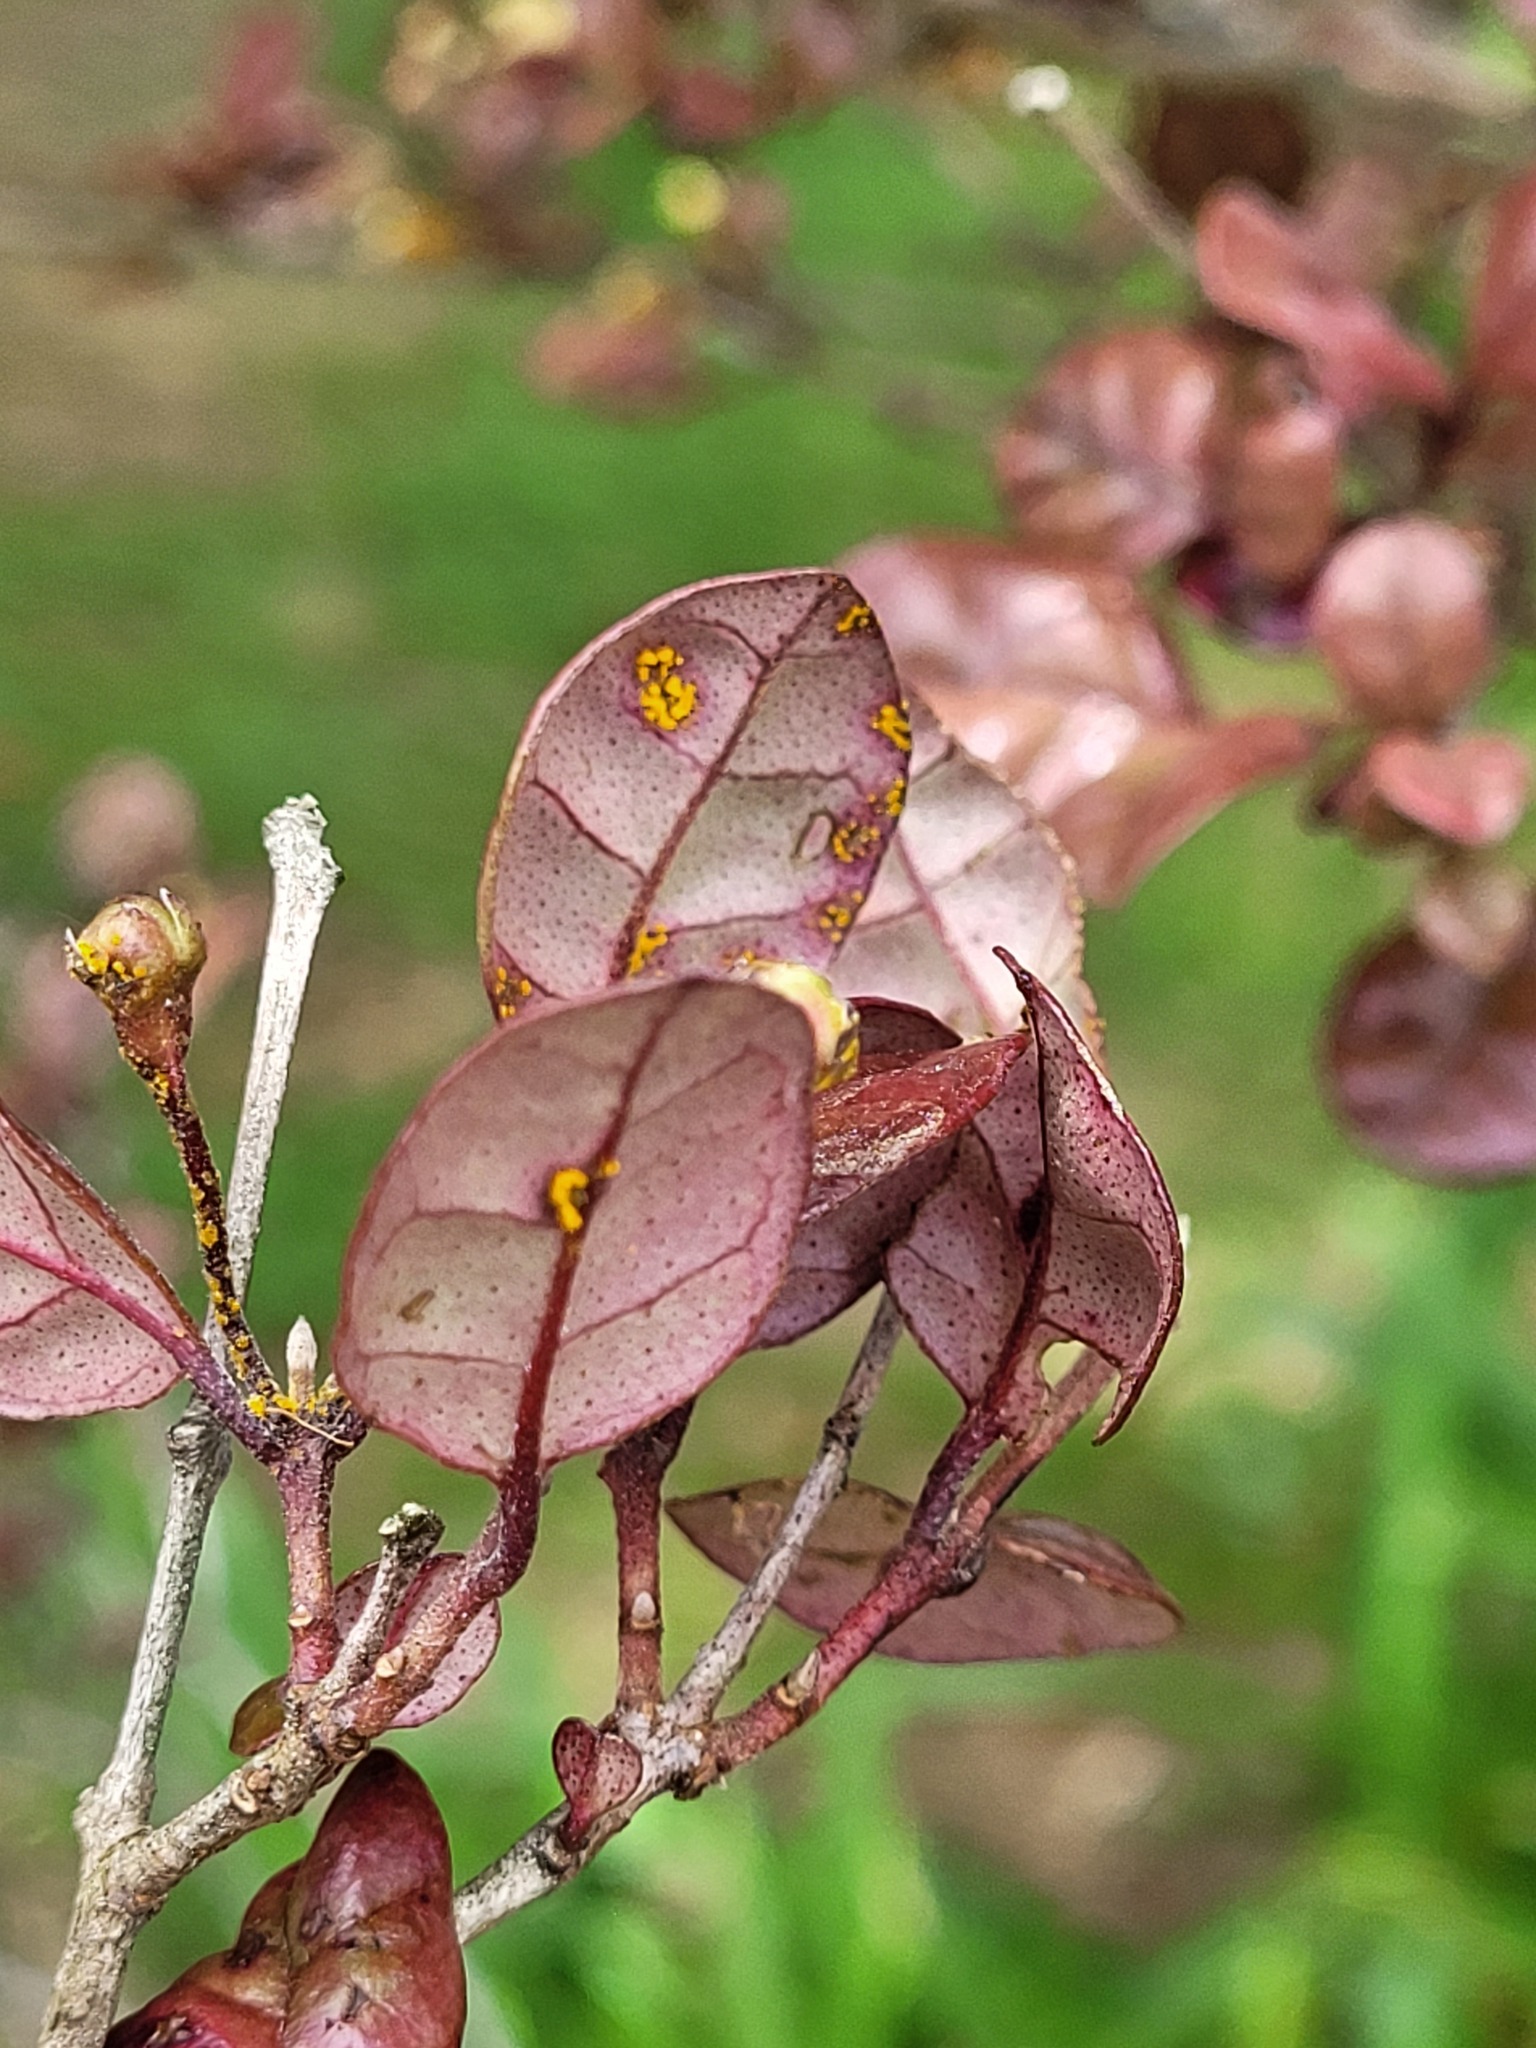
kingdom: Fungi
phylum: Basidiomycota
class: Pucciniomycetes
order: Pucciniales
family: Sphaerophragmiaceae
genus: Austropuccinia
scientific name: Austropuccinia psidii
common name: Myrtle rust
